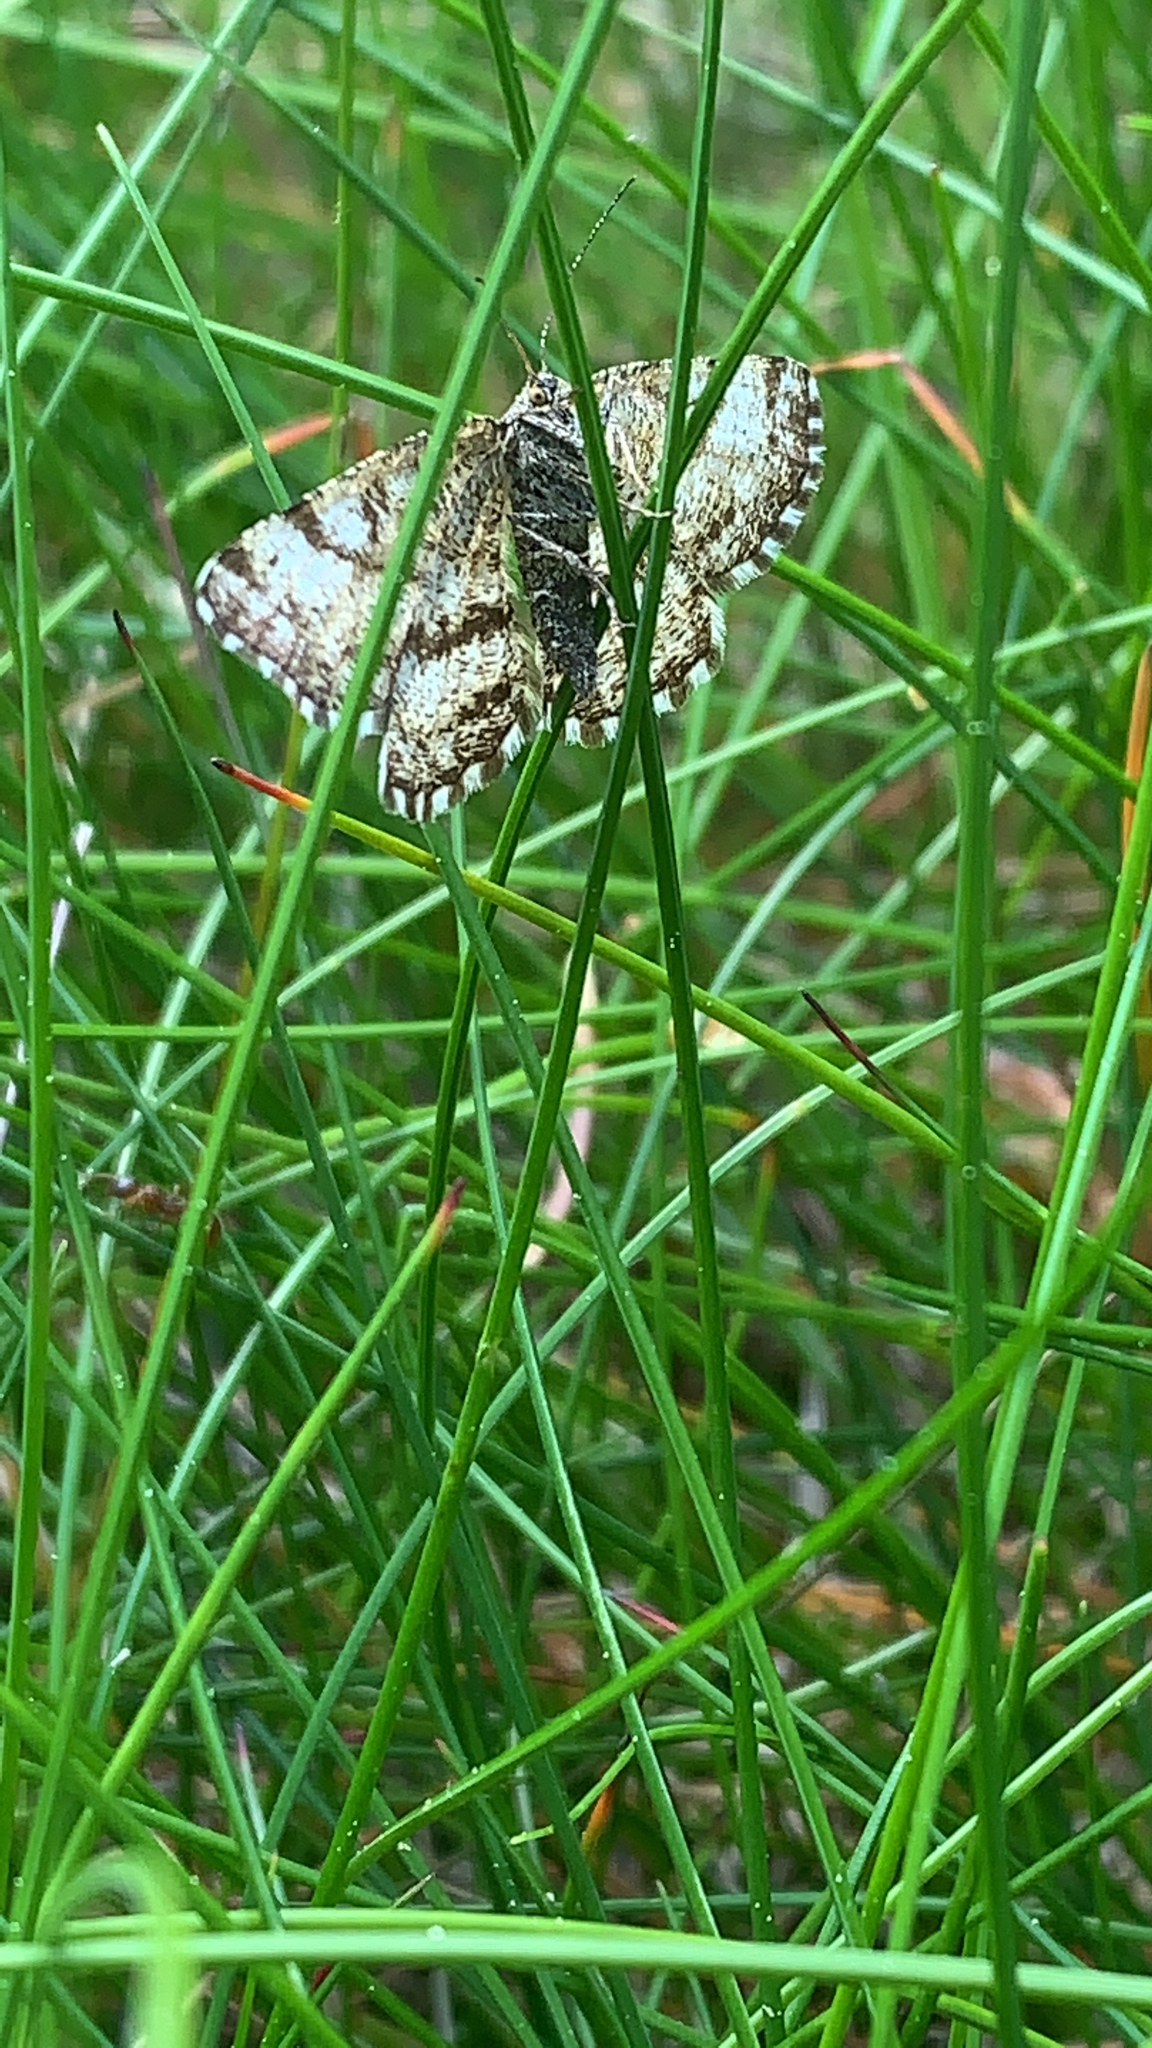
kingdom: Animalia
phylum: Arthropoda
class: Insecta
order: Lepidoptera
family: Geometridae
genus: Ematurga
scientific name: Ematurga atomaria
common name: Common heath
